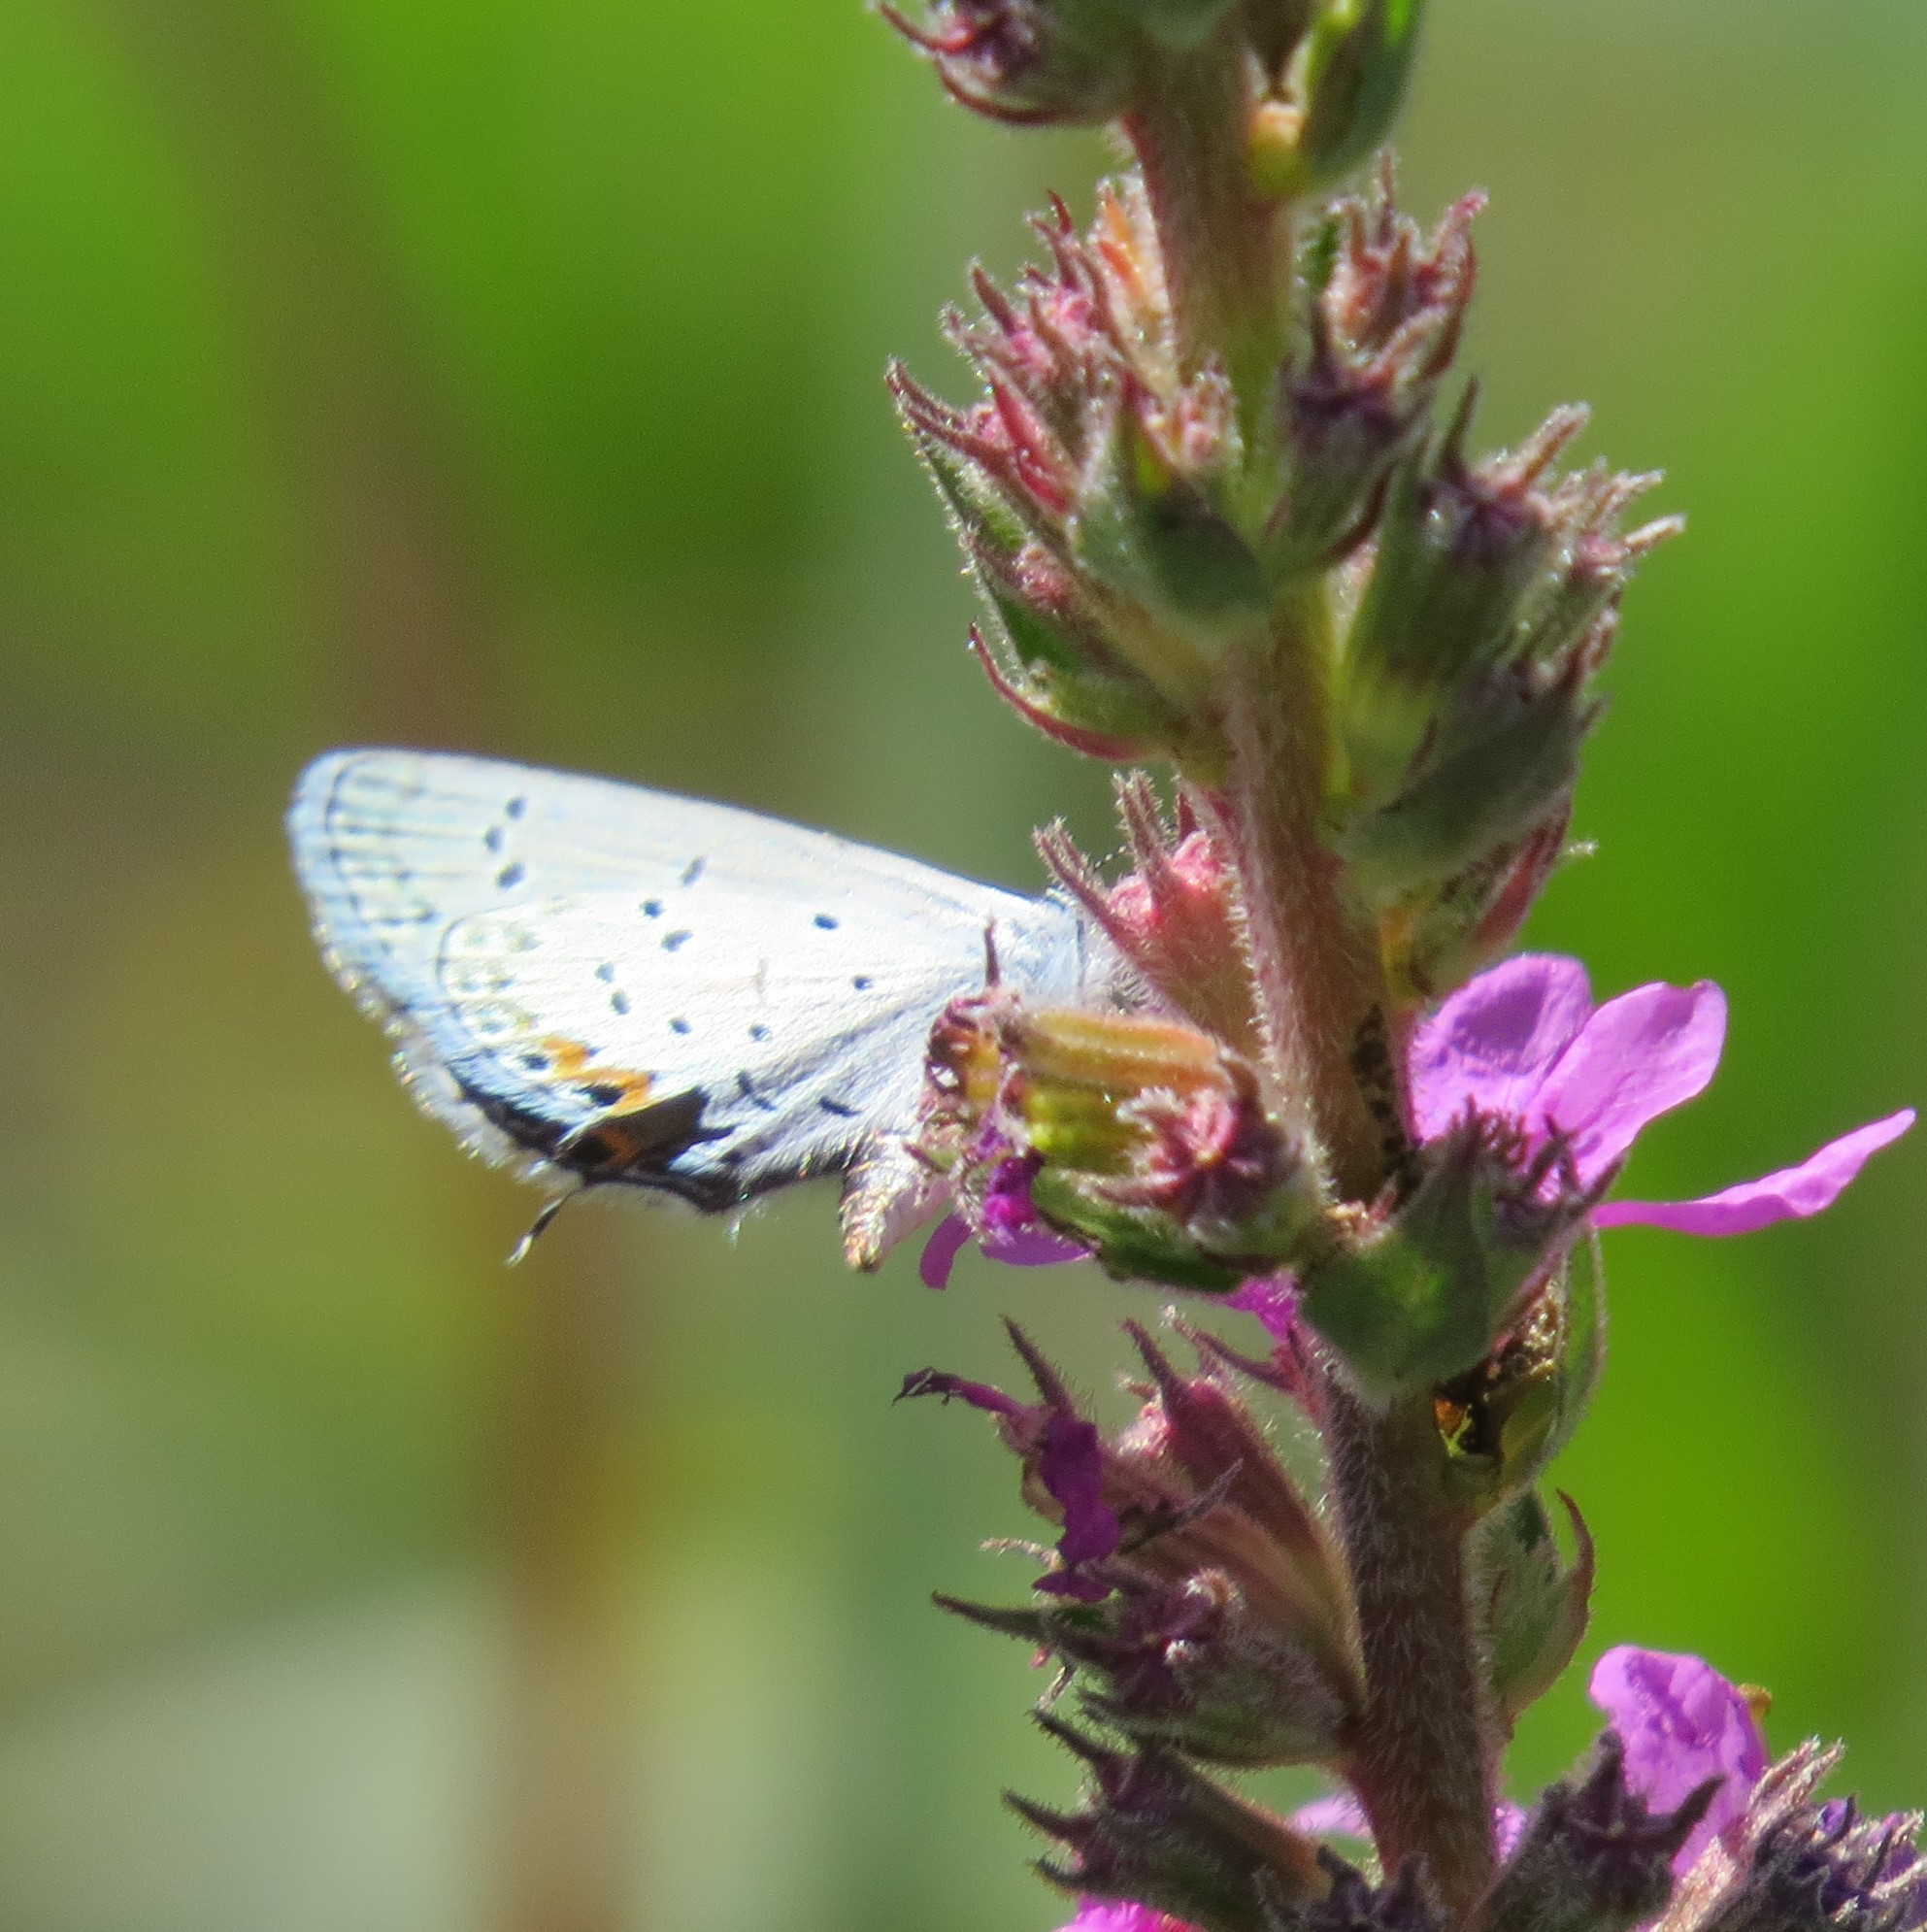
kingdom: Animalia
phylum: Arthropoda
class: Insecta
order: Lepidoptera
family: Lycaenidae
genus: Elkalyce
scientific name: Elkalyce comyntas
